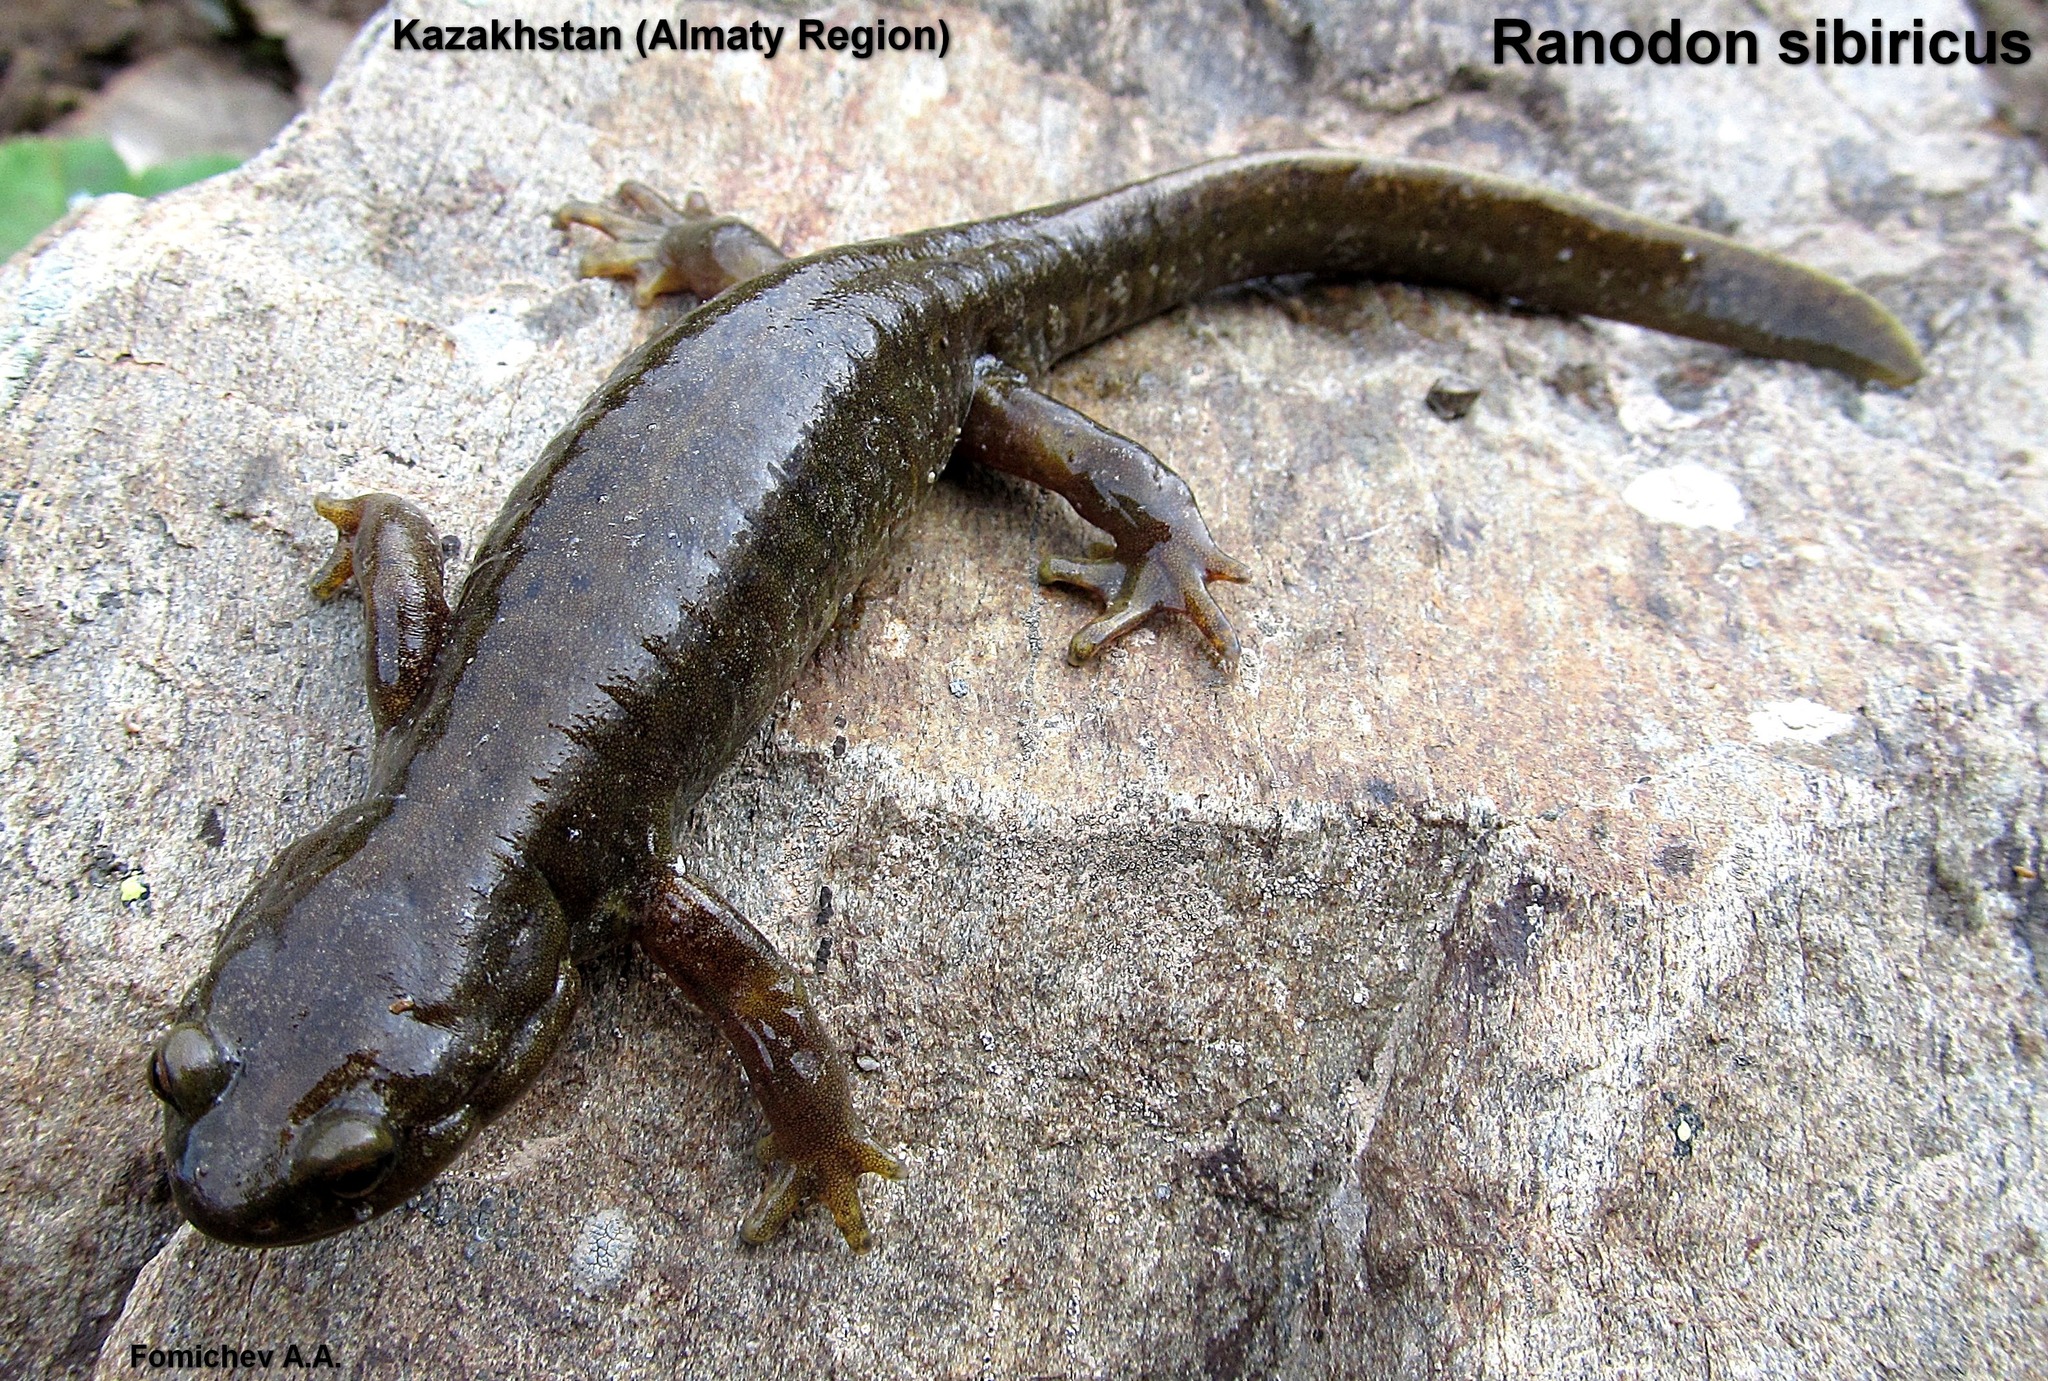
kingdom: Animalia
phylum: Chordata
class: Amphibia
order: Caudata
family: Hynobiidae
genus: Ranodon
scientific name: Ranodon sibiricus
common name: Semirechensk salamander
